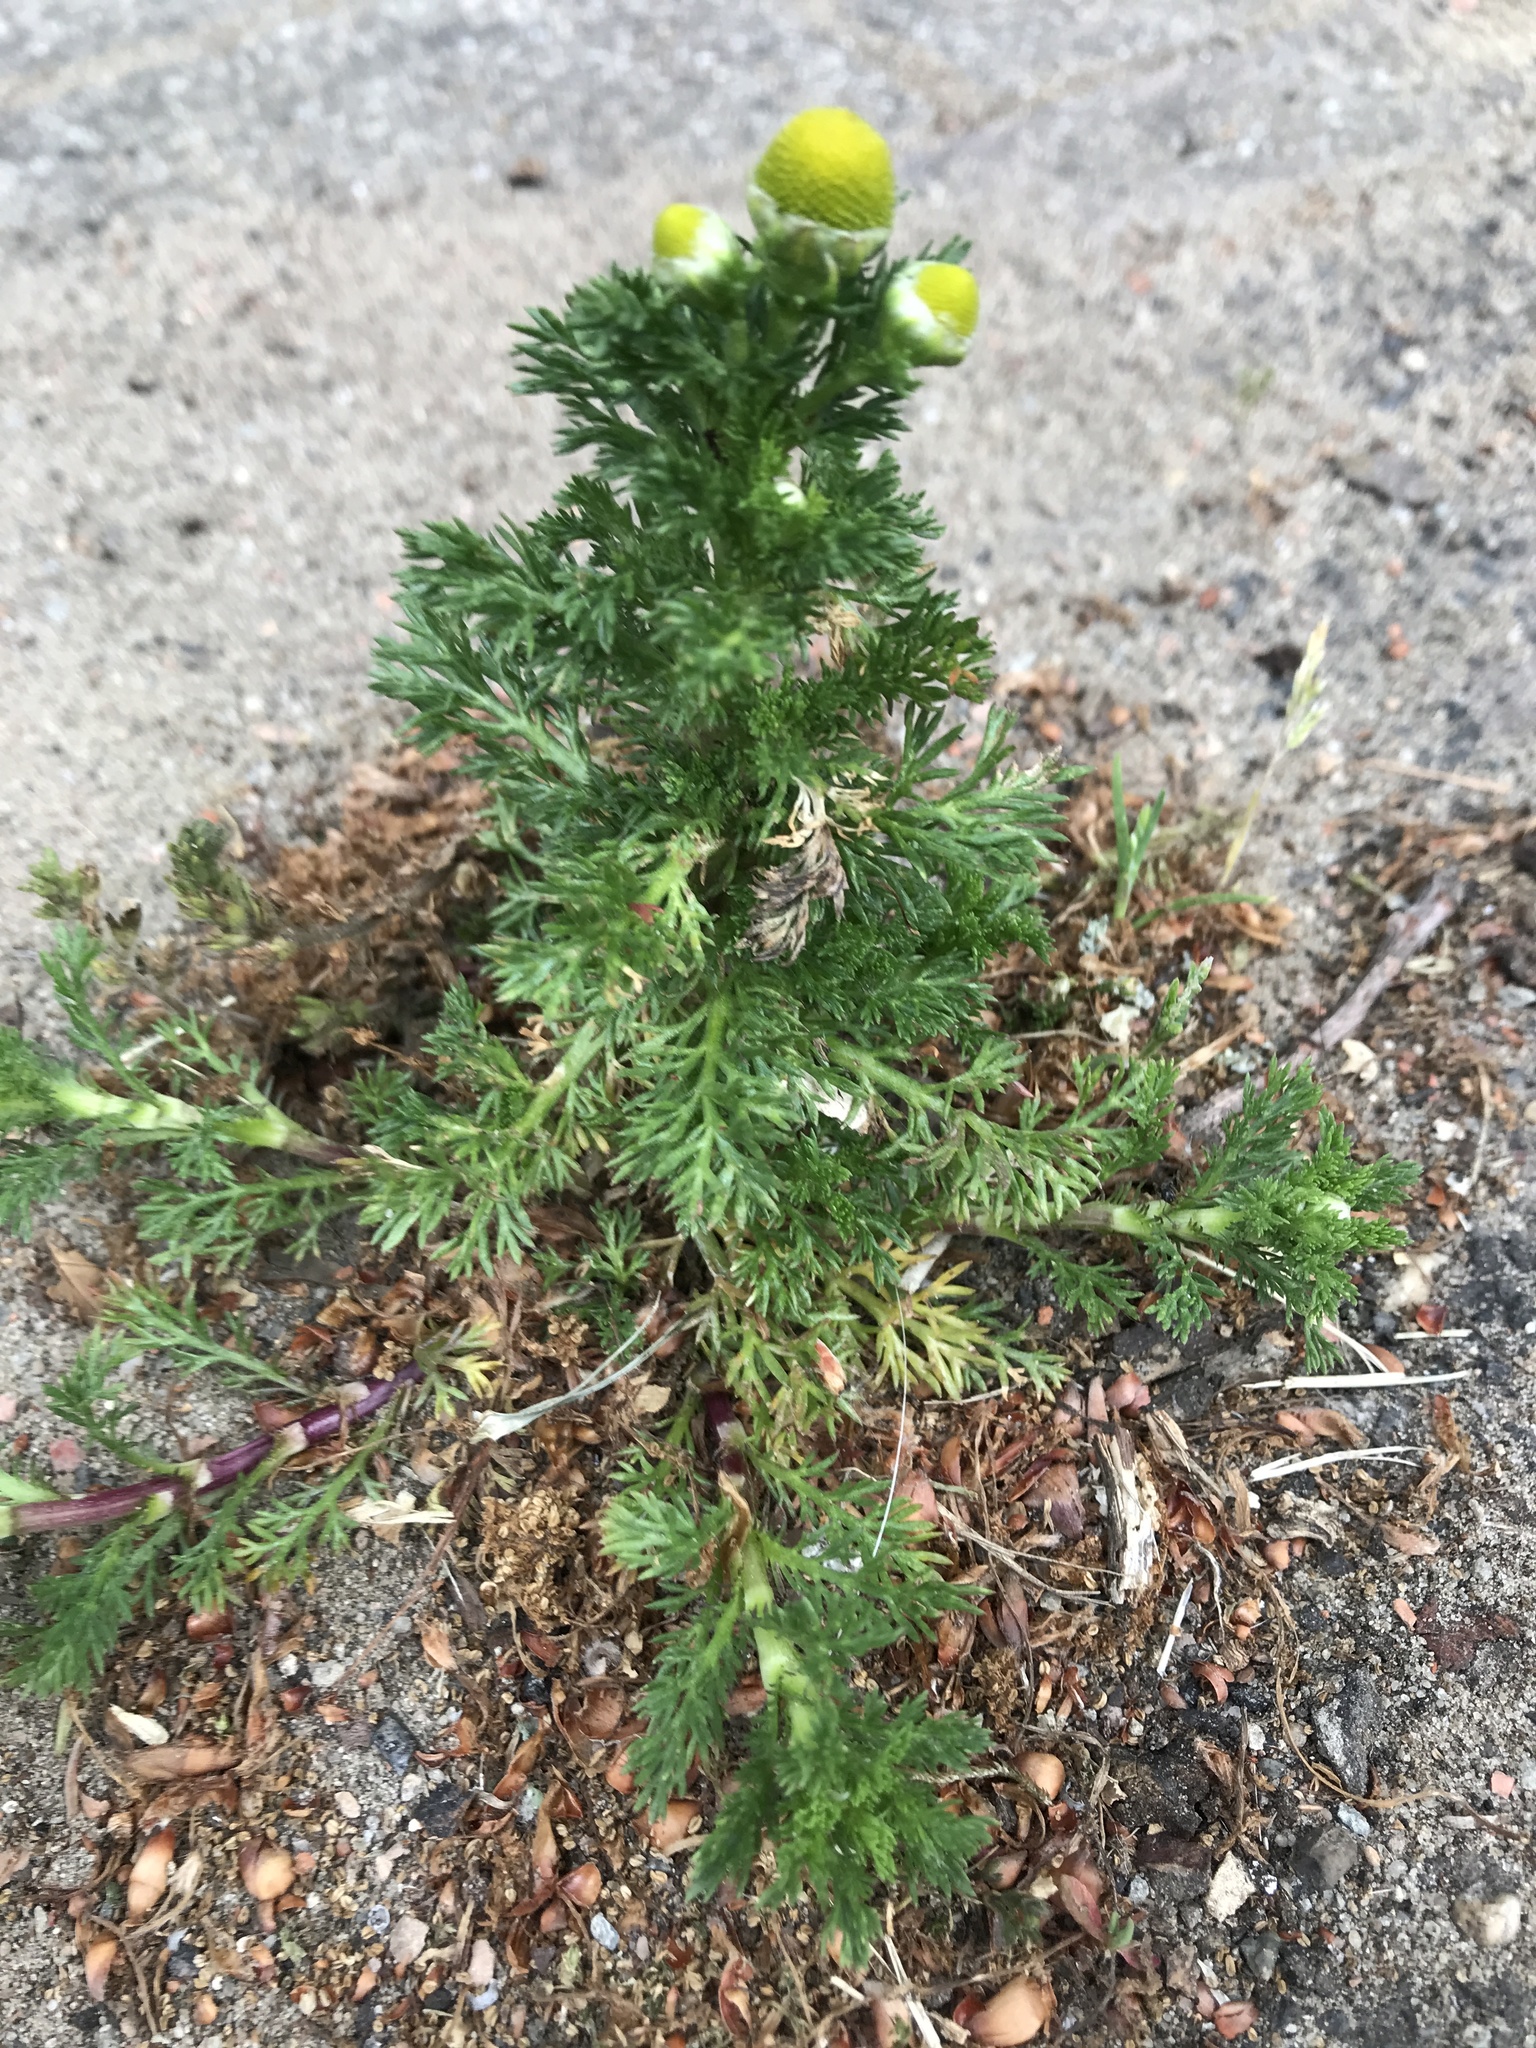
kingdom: Plantae
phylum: Tracheophyta
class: Magnoliopsida
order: Asterales
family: Asteraceae
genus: Matricaria
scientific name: Matricaria discoidea
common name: Disc mayweed
